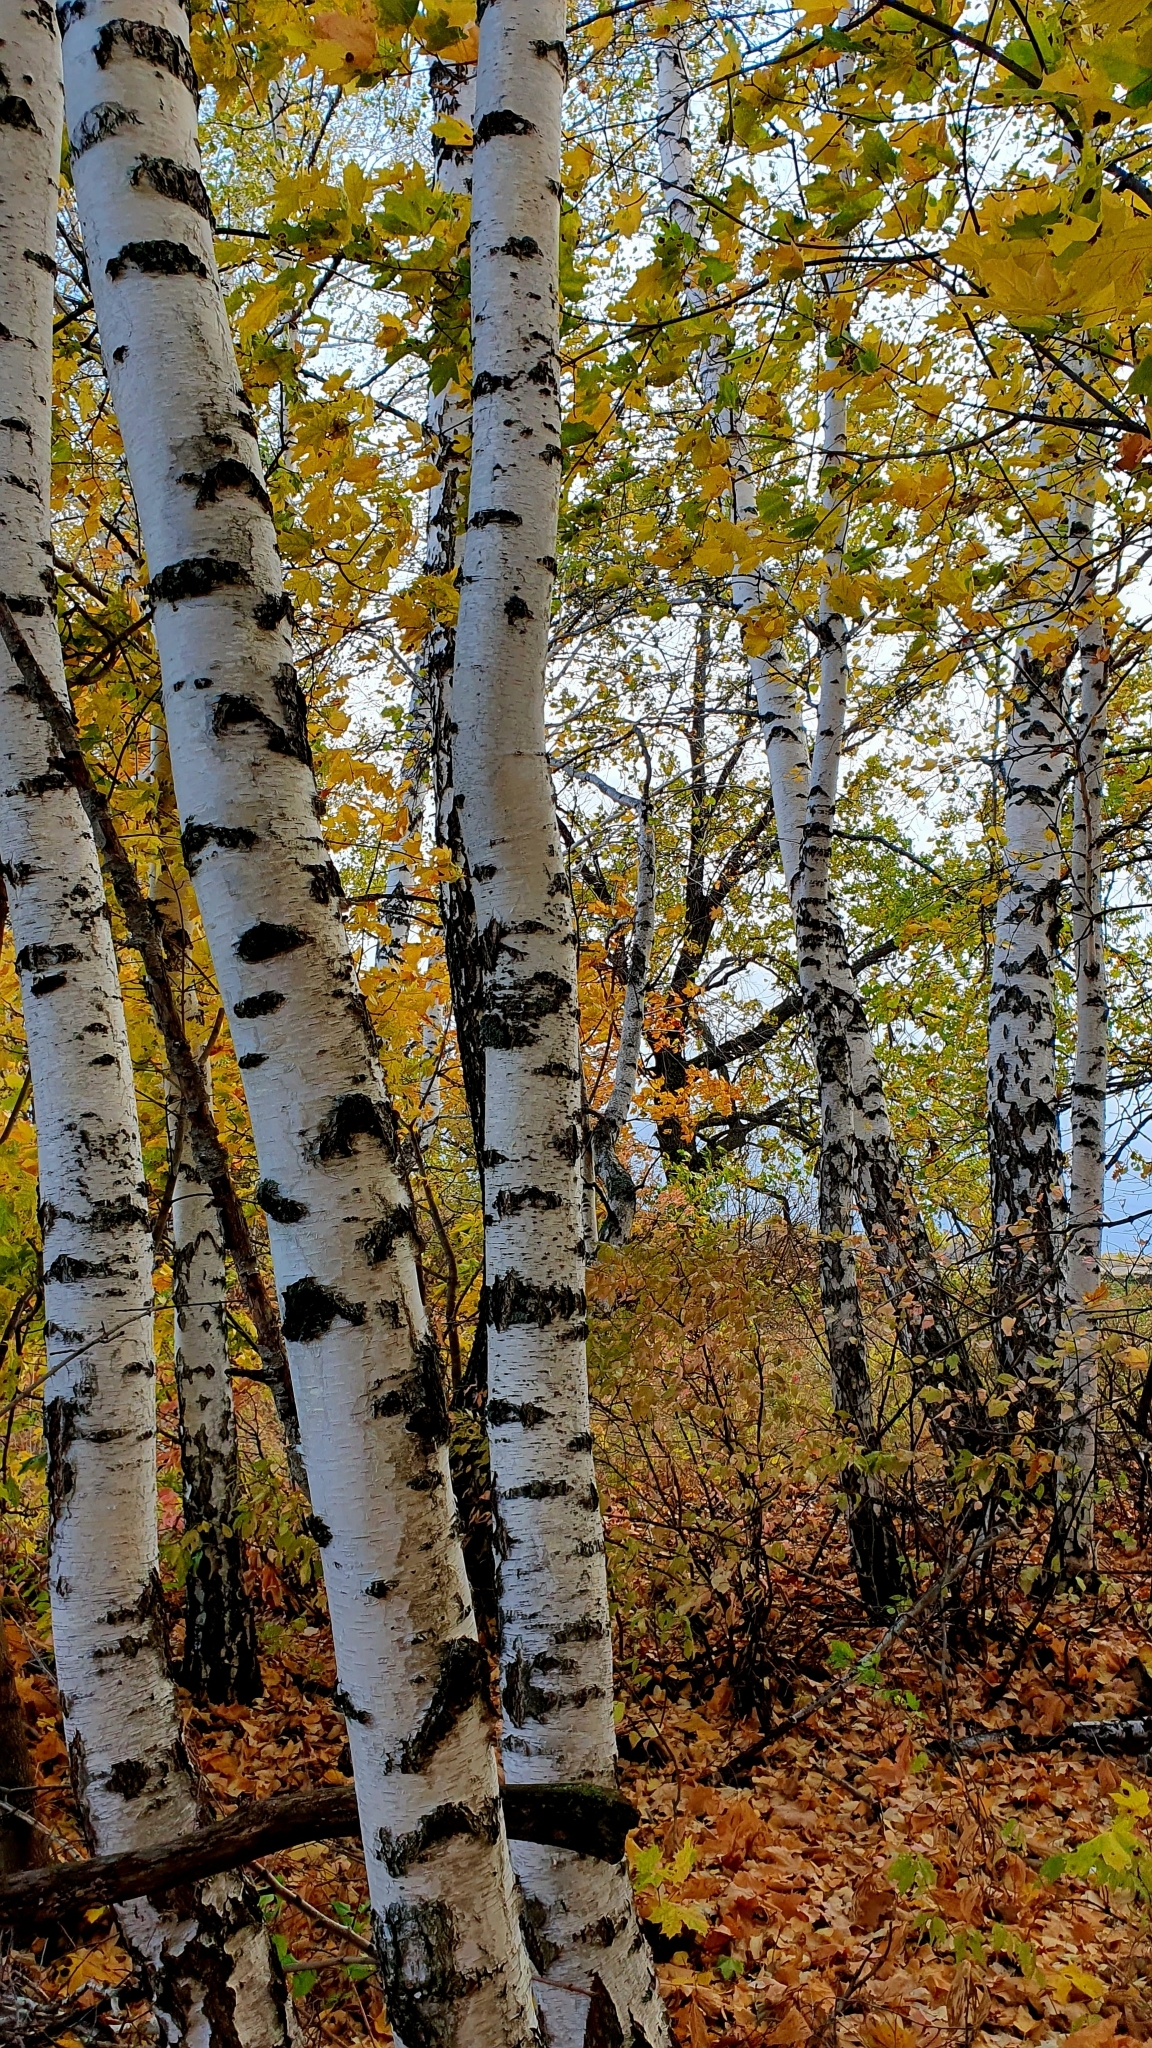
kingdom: Plantae
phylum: Tracheophyta
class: Magnoliopsida
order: Fagales
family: Betulaceae
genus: Betula
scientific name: Betula pendula
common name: Silver birch
